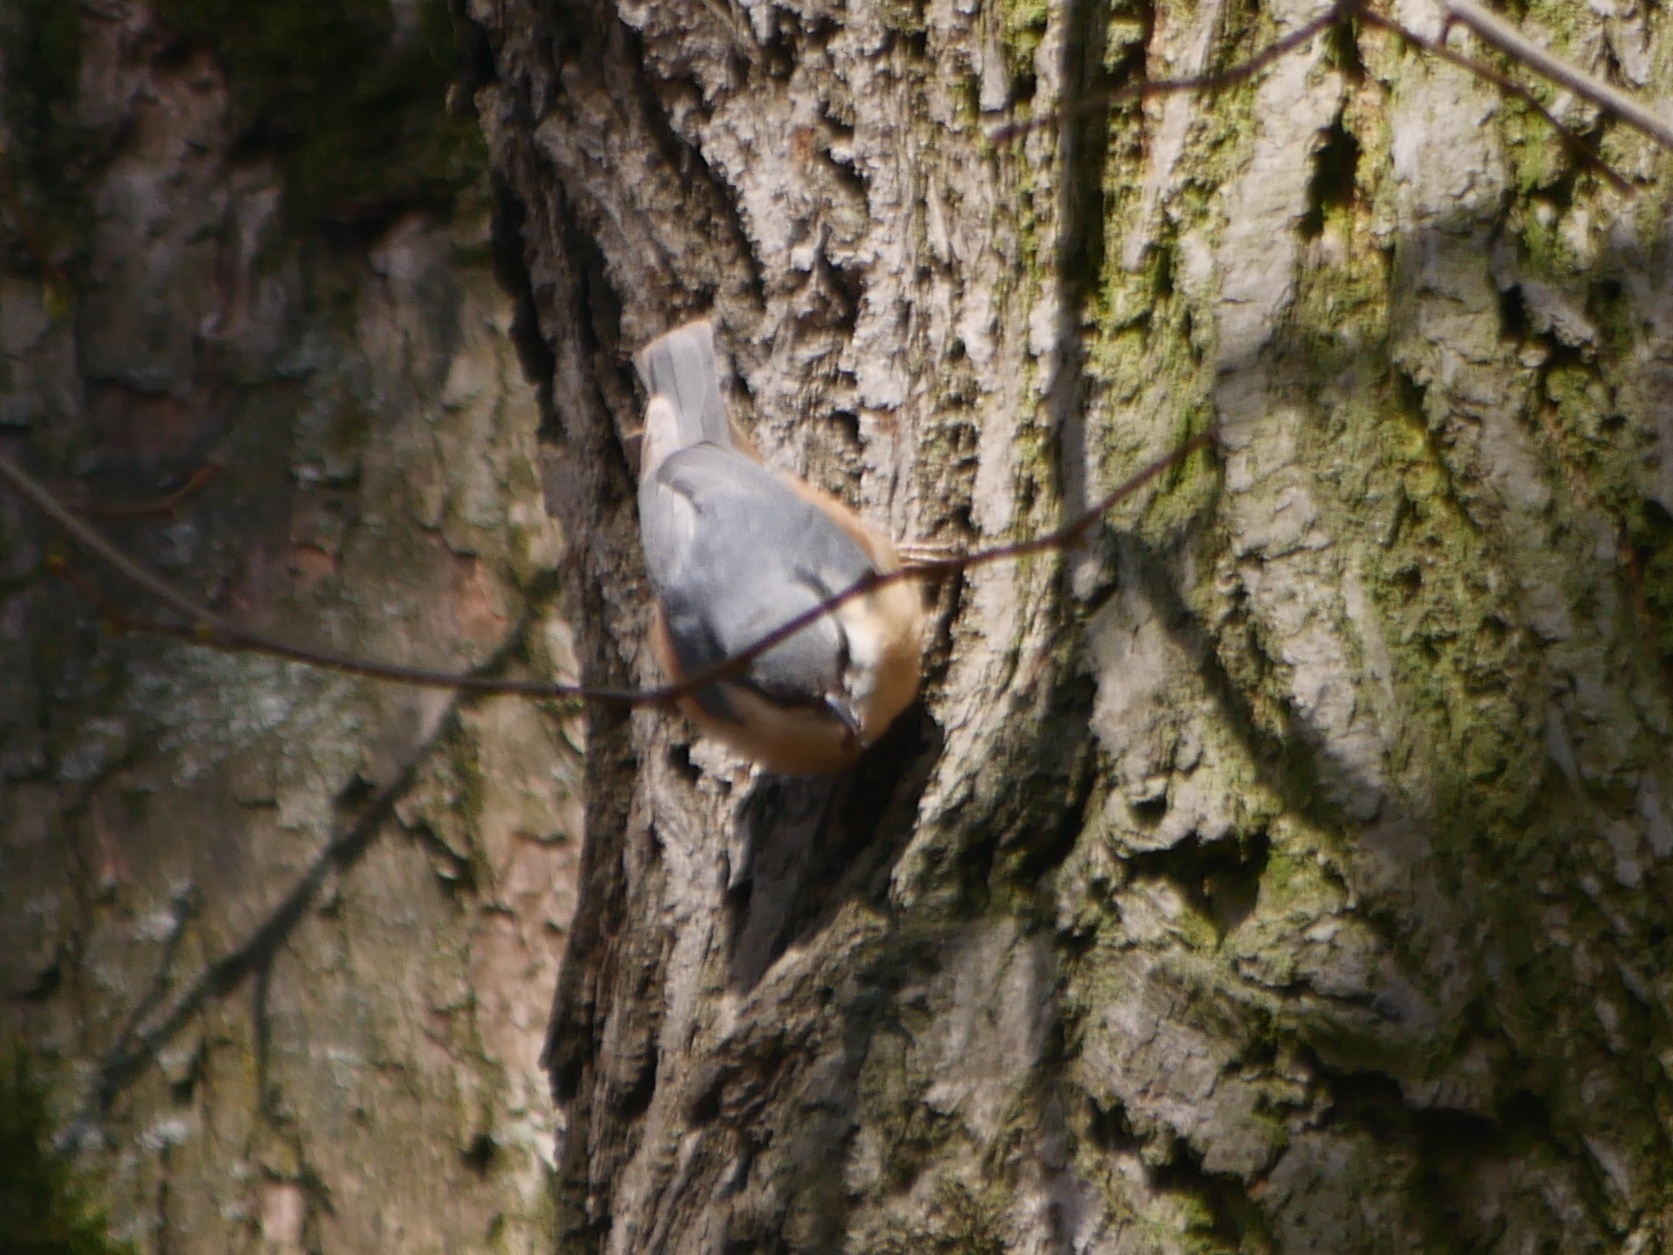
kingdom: Animalia
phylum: Chordata
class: Aves
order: Passeriformes
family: Sittidae
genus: Sitta
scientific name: Sitta europaea
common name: Eurasian nuthatch
